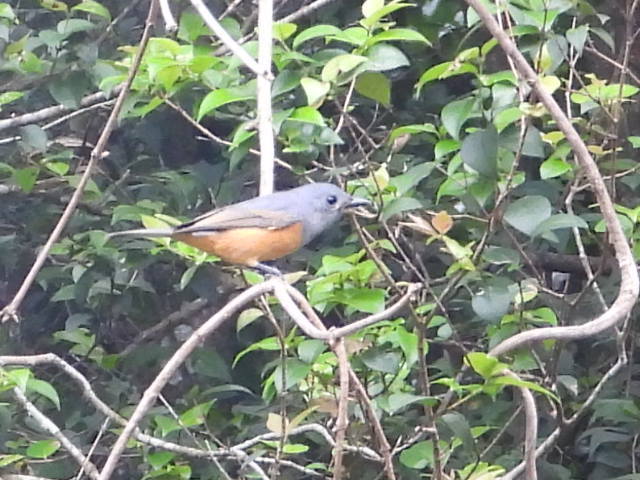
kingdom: Animalia
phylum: Chordata
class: Aves
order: Passeriformes
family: Monarchidae
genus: Monarcha
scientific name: Monarcha melanopsis
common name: Black-faced monarch
